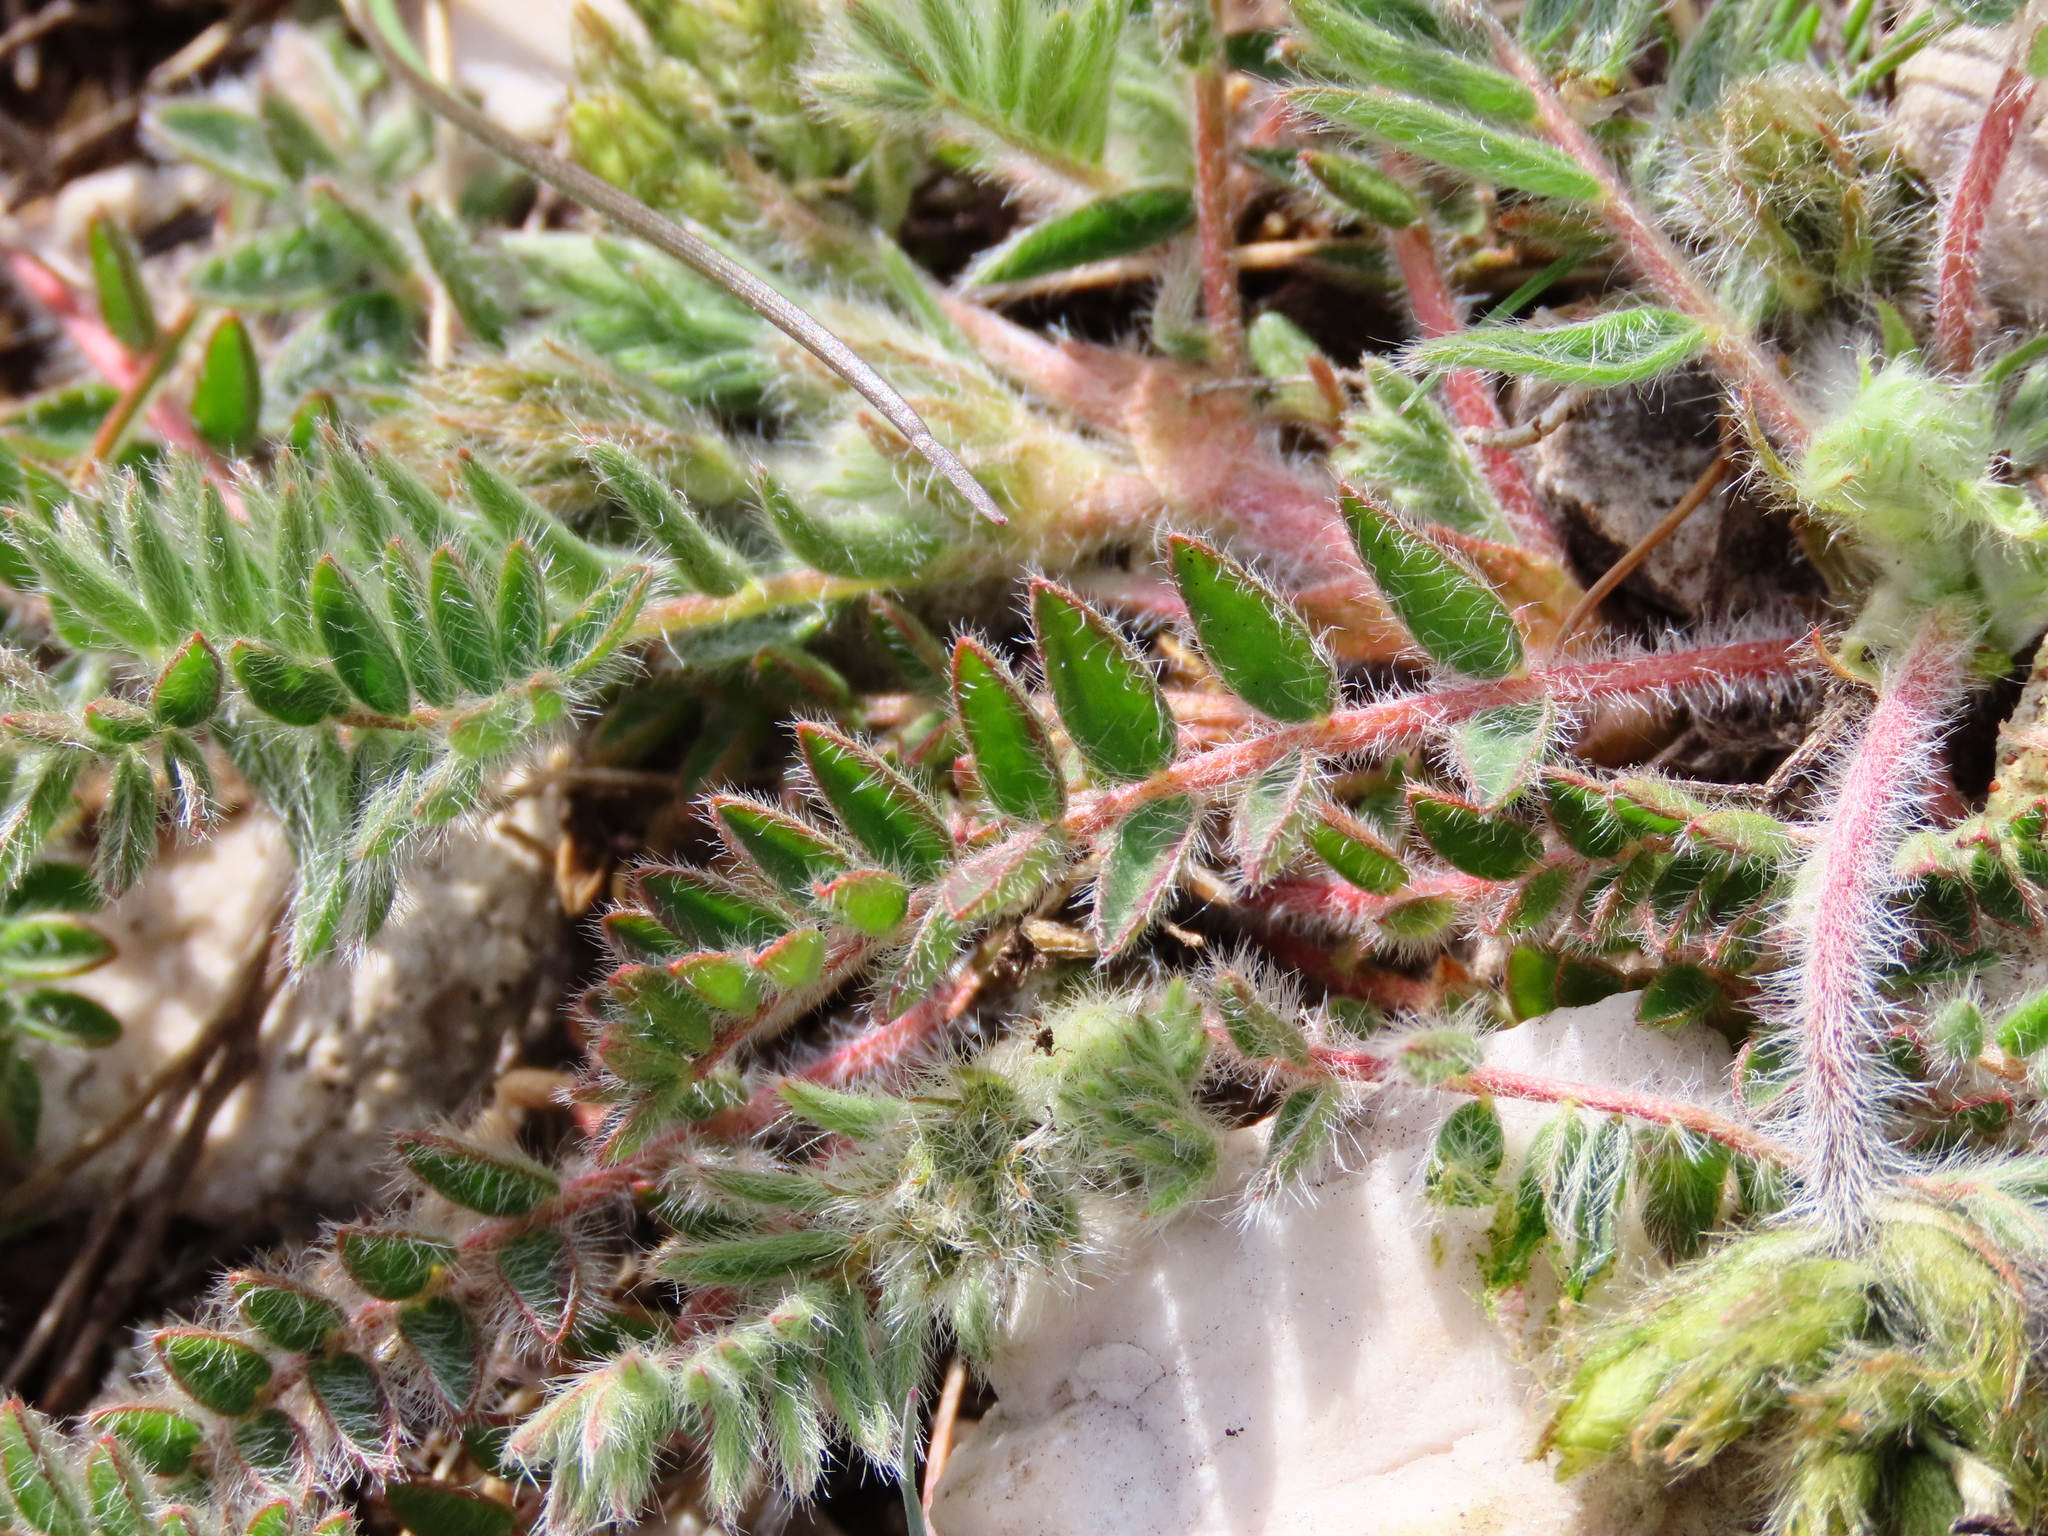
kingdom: Plantae
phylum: Tracheophyta
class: Magnoliopsida
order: Fabales
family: Fabaceae
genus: Oxytropis
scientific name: Oxytropis pilosa
